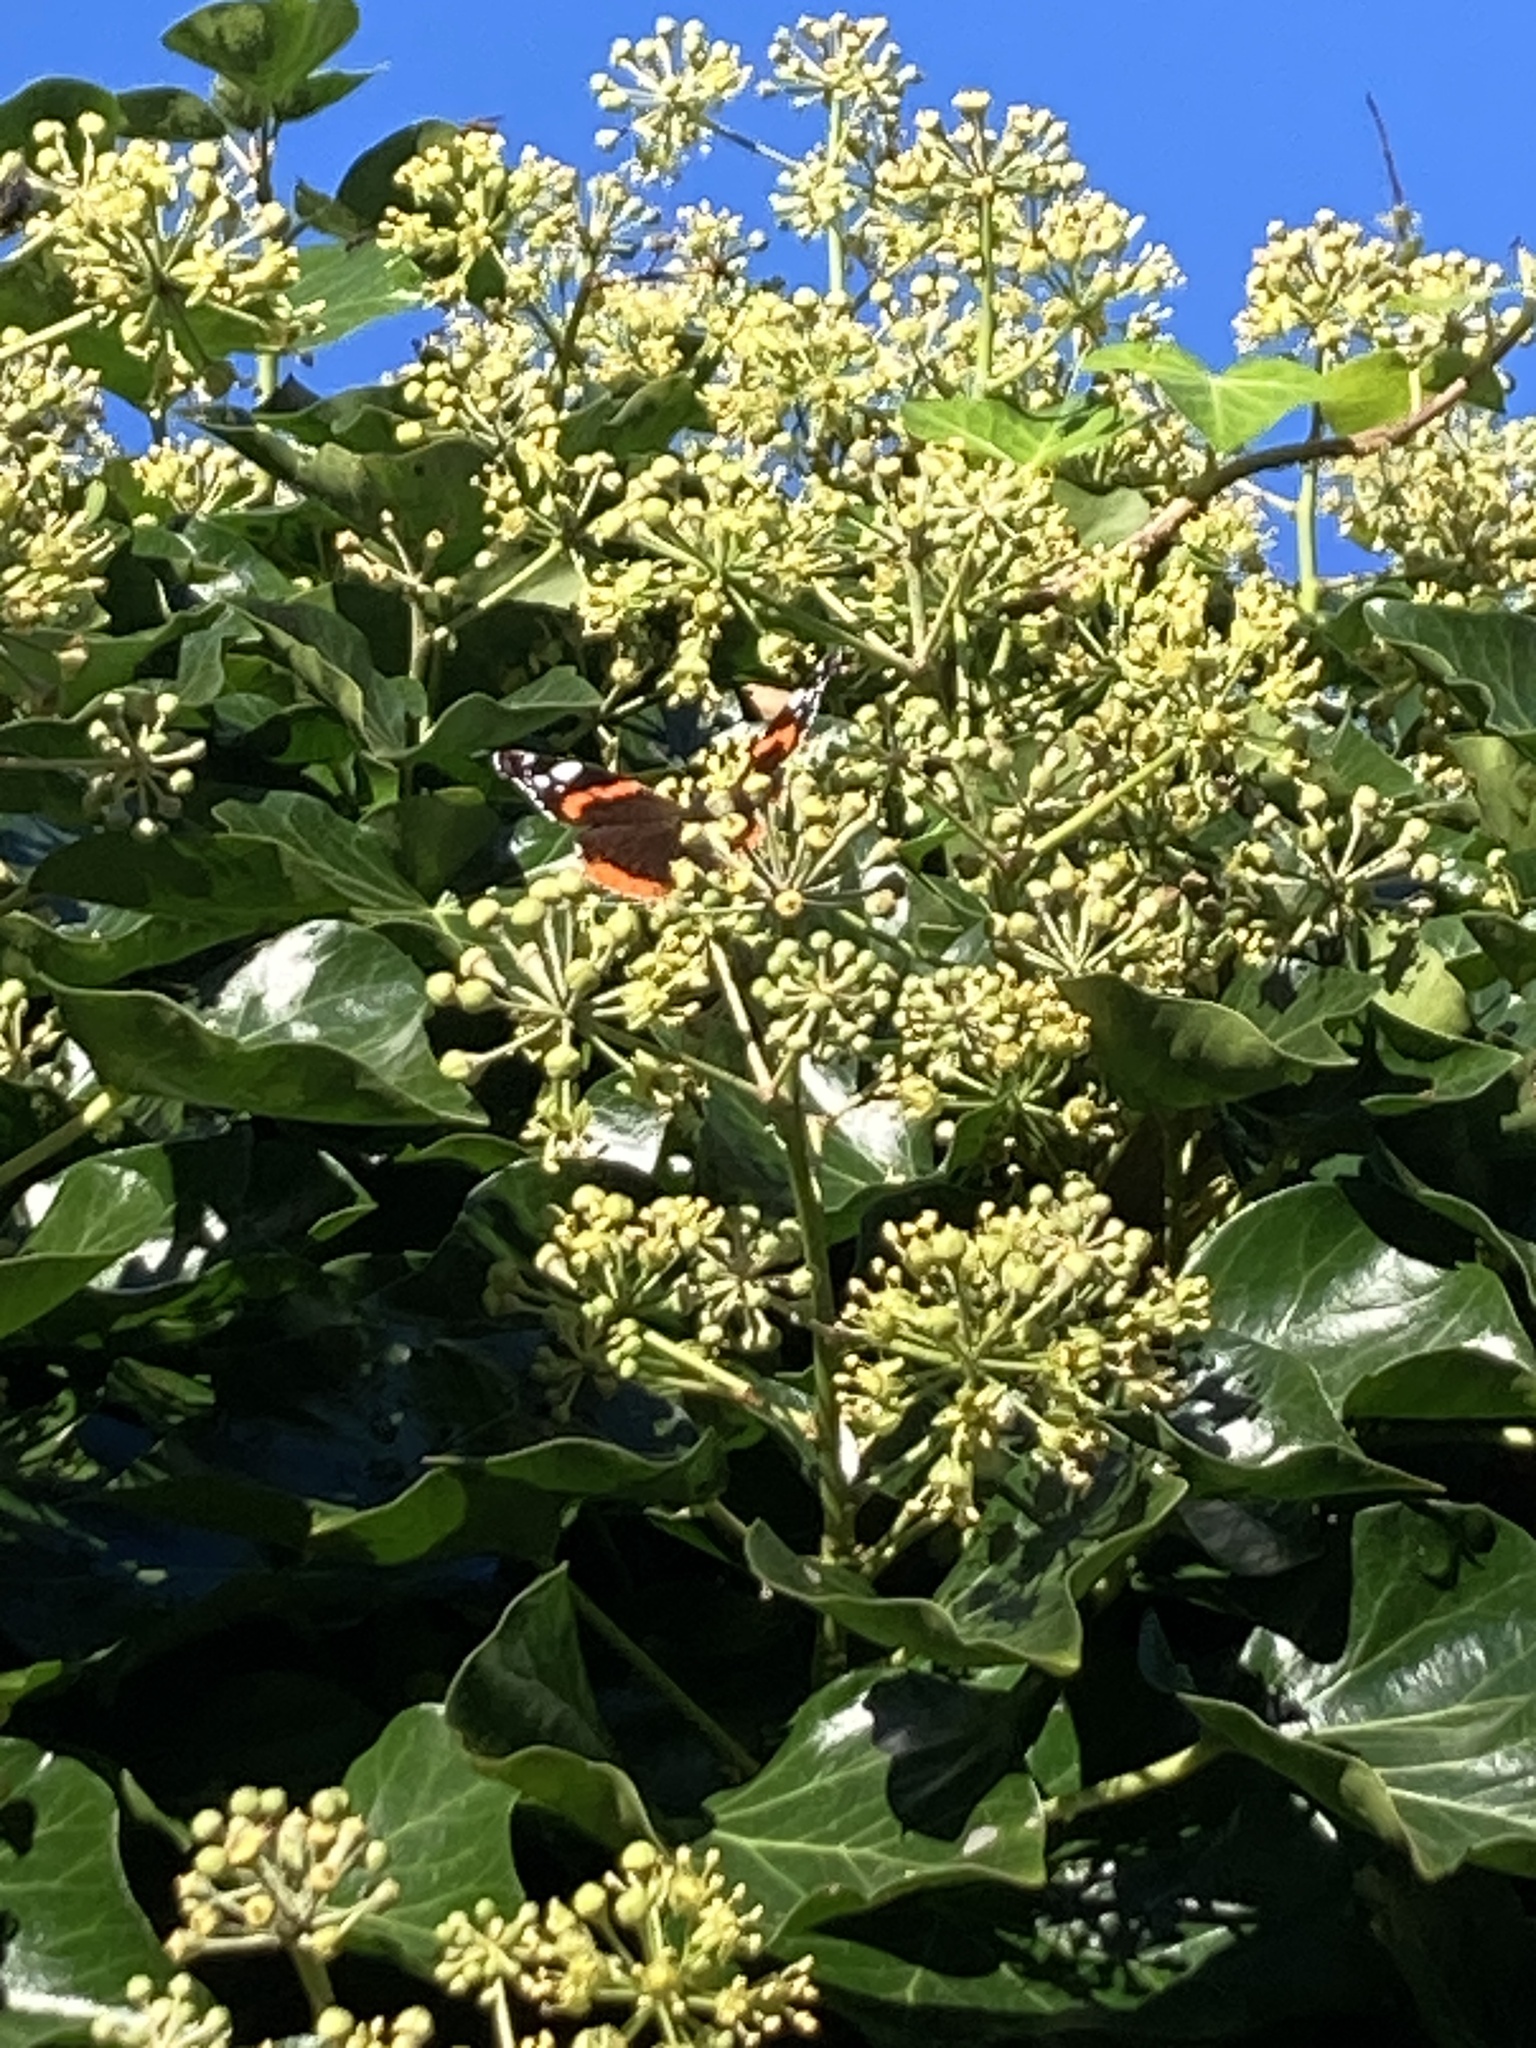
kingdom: Animalia
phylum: Arthropoda
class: Insecta
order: Lepidoptera
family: Nymphalidae
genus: Vanessa
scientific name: Vanessa atalanta
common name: Red admiral
